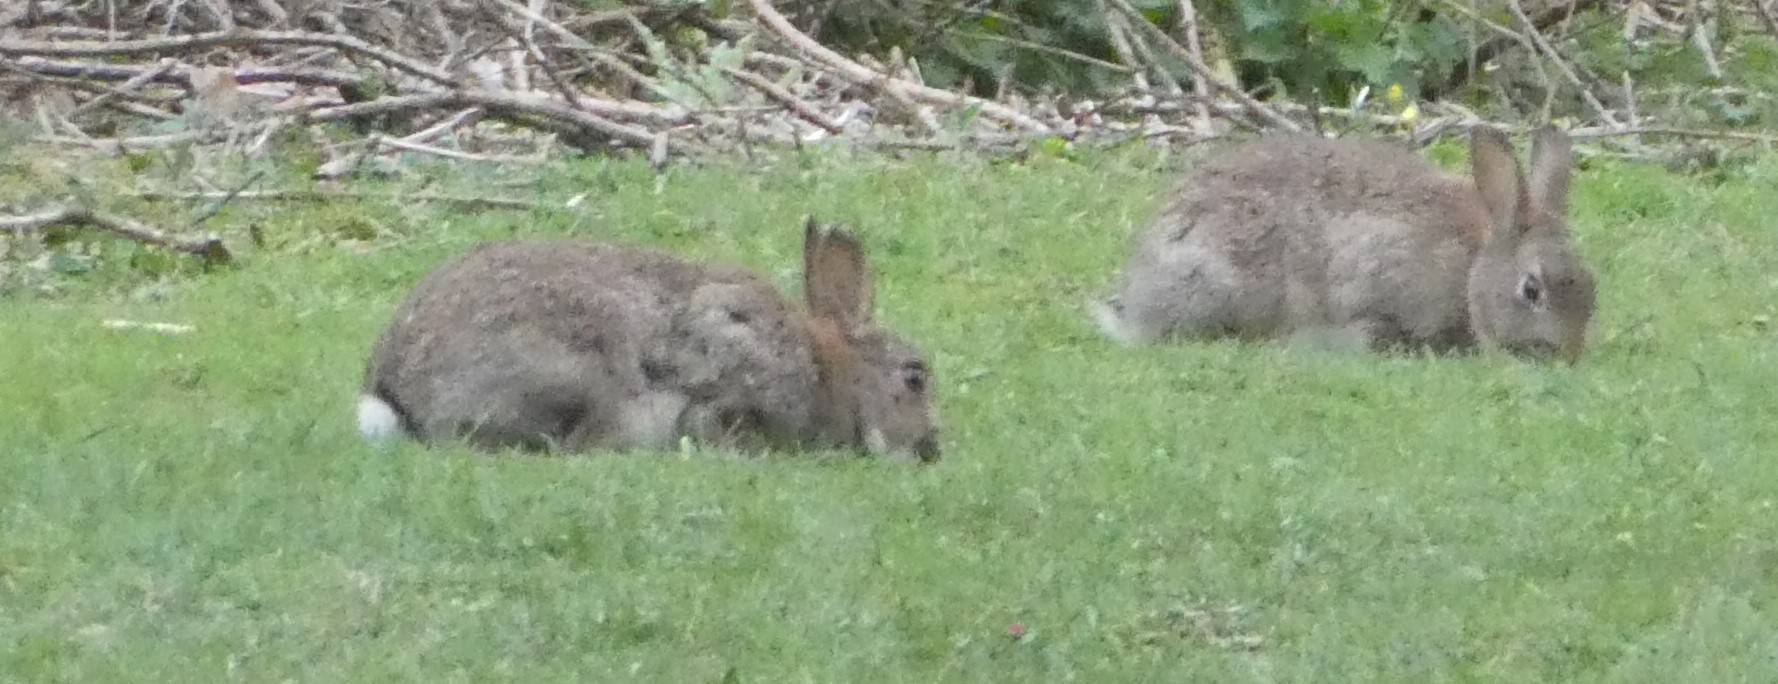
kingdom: Animalia
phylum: Chordata
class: Mammalia
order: Lagomorpha
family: Leporidae
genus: Oryctolagus
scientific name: Oryctolagus cuniculus
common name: European rabbit
